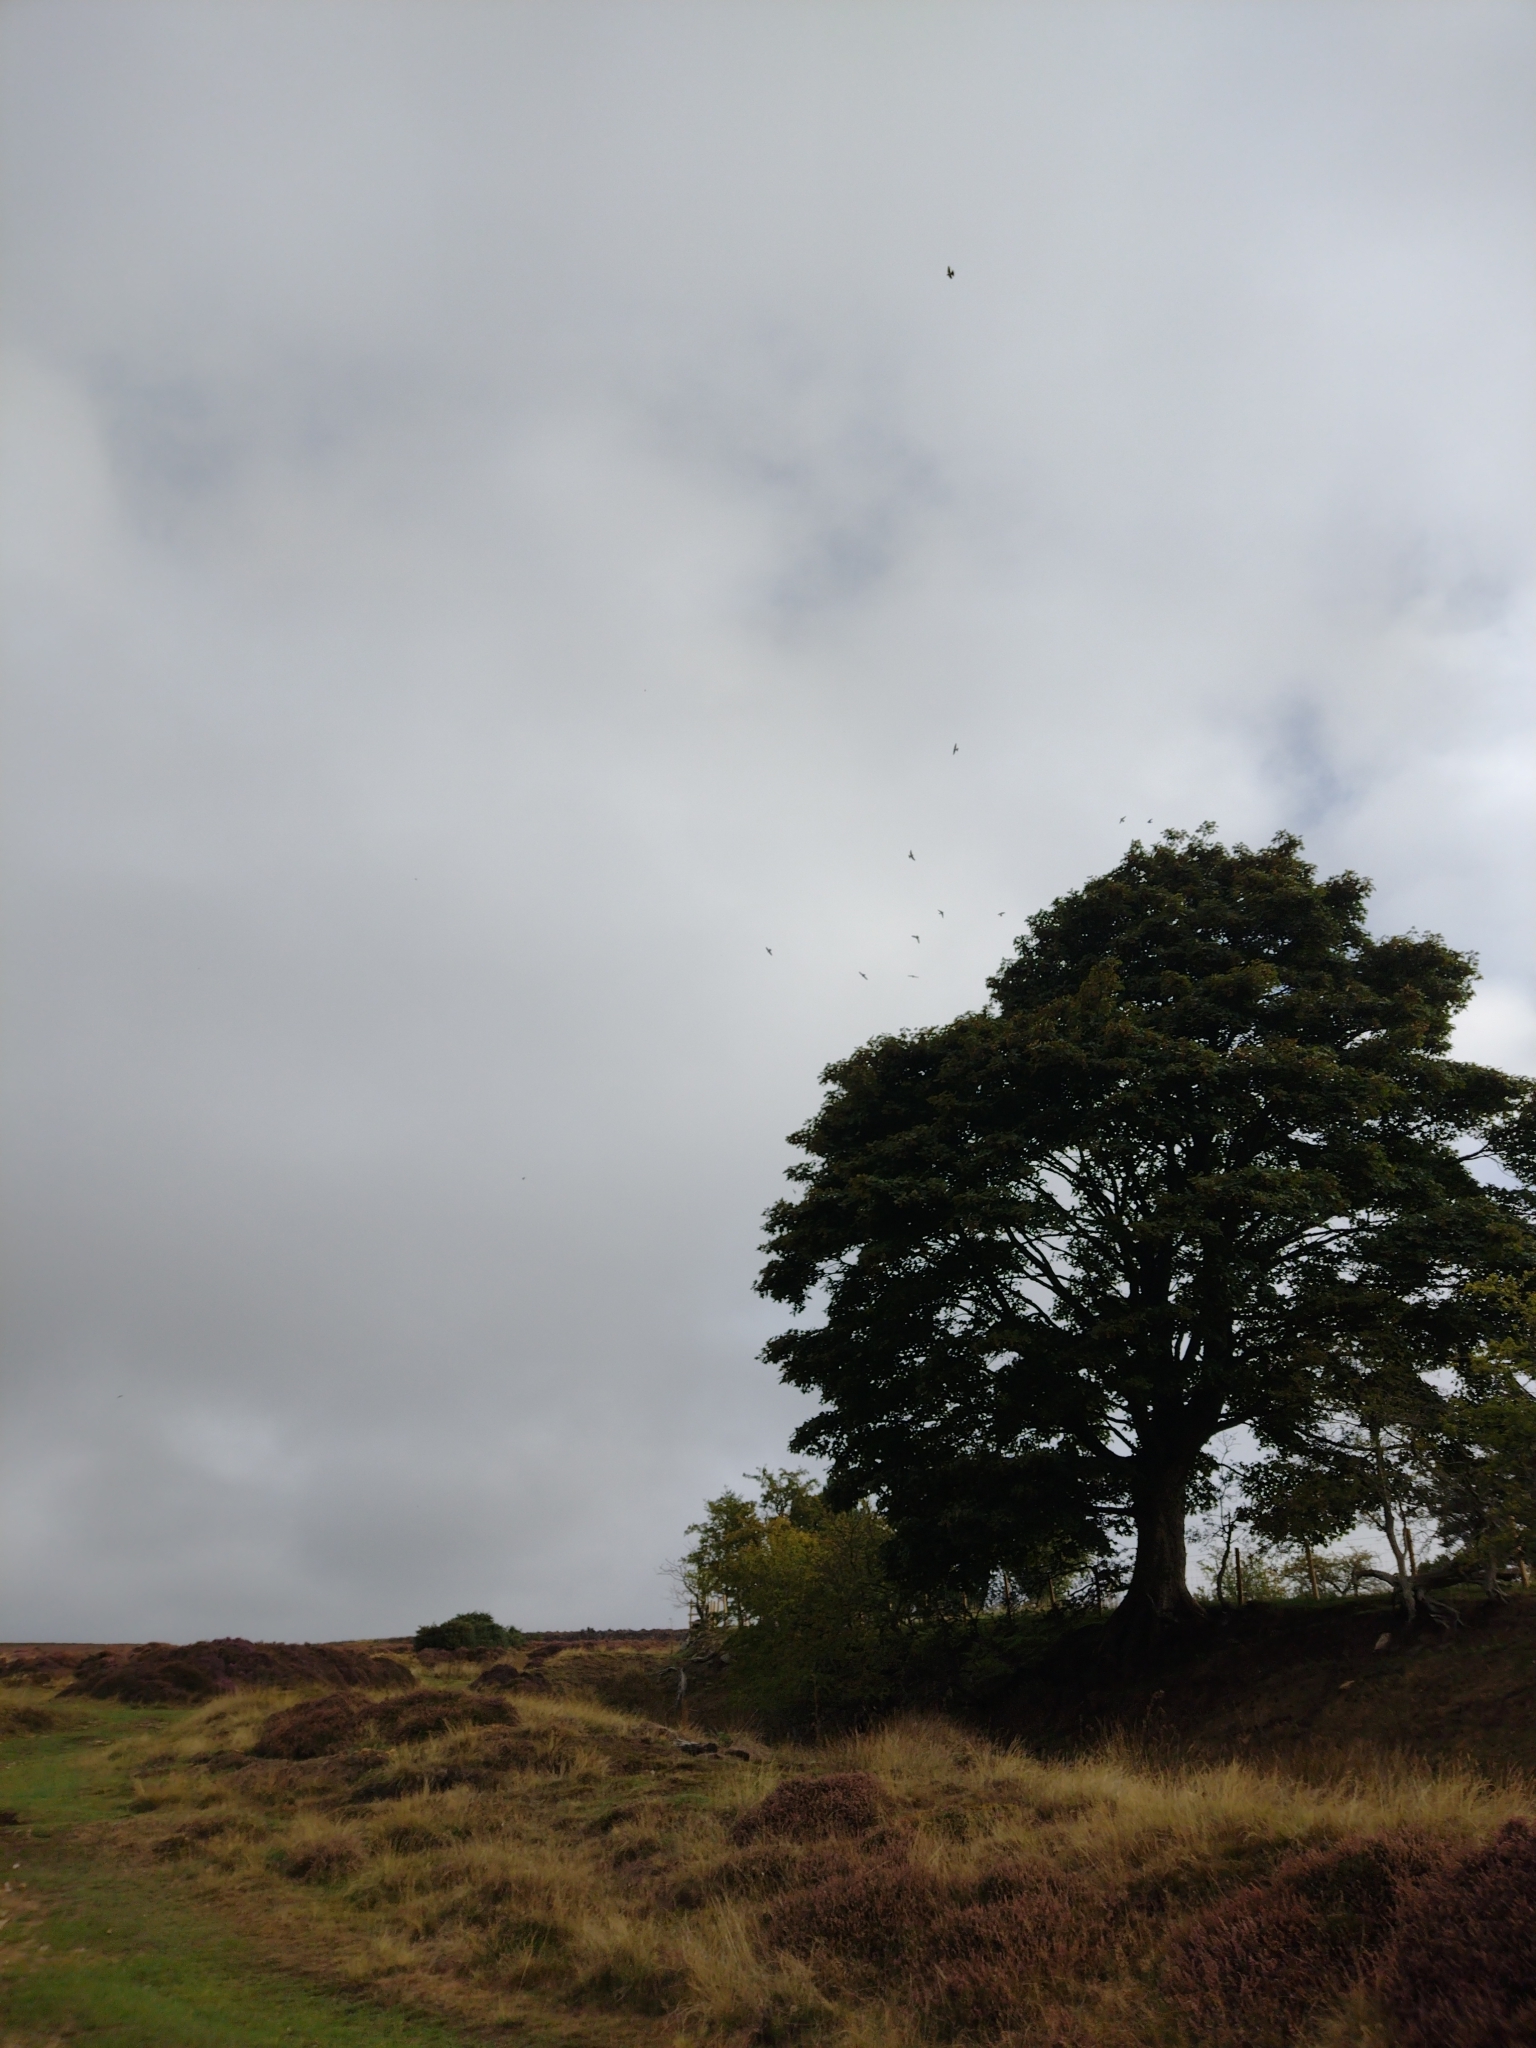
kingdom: Animalia
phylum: Chordata
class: Aves
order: Passeriformes
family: Hirundinidae
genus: Delichon
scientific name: Delichon urbicum
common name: Common house martin
